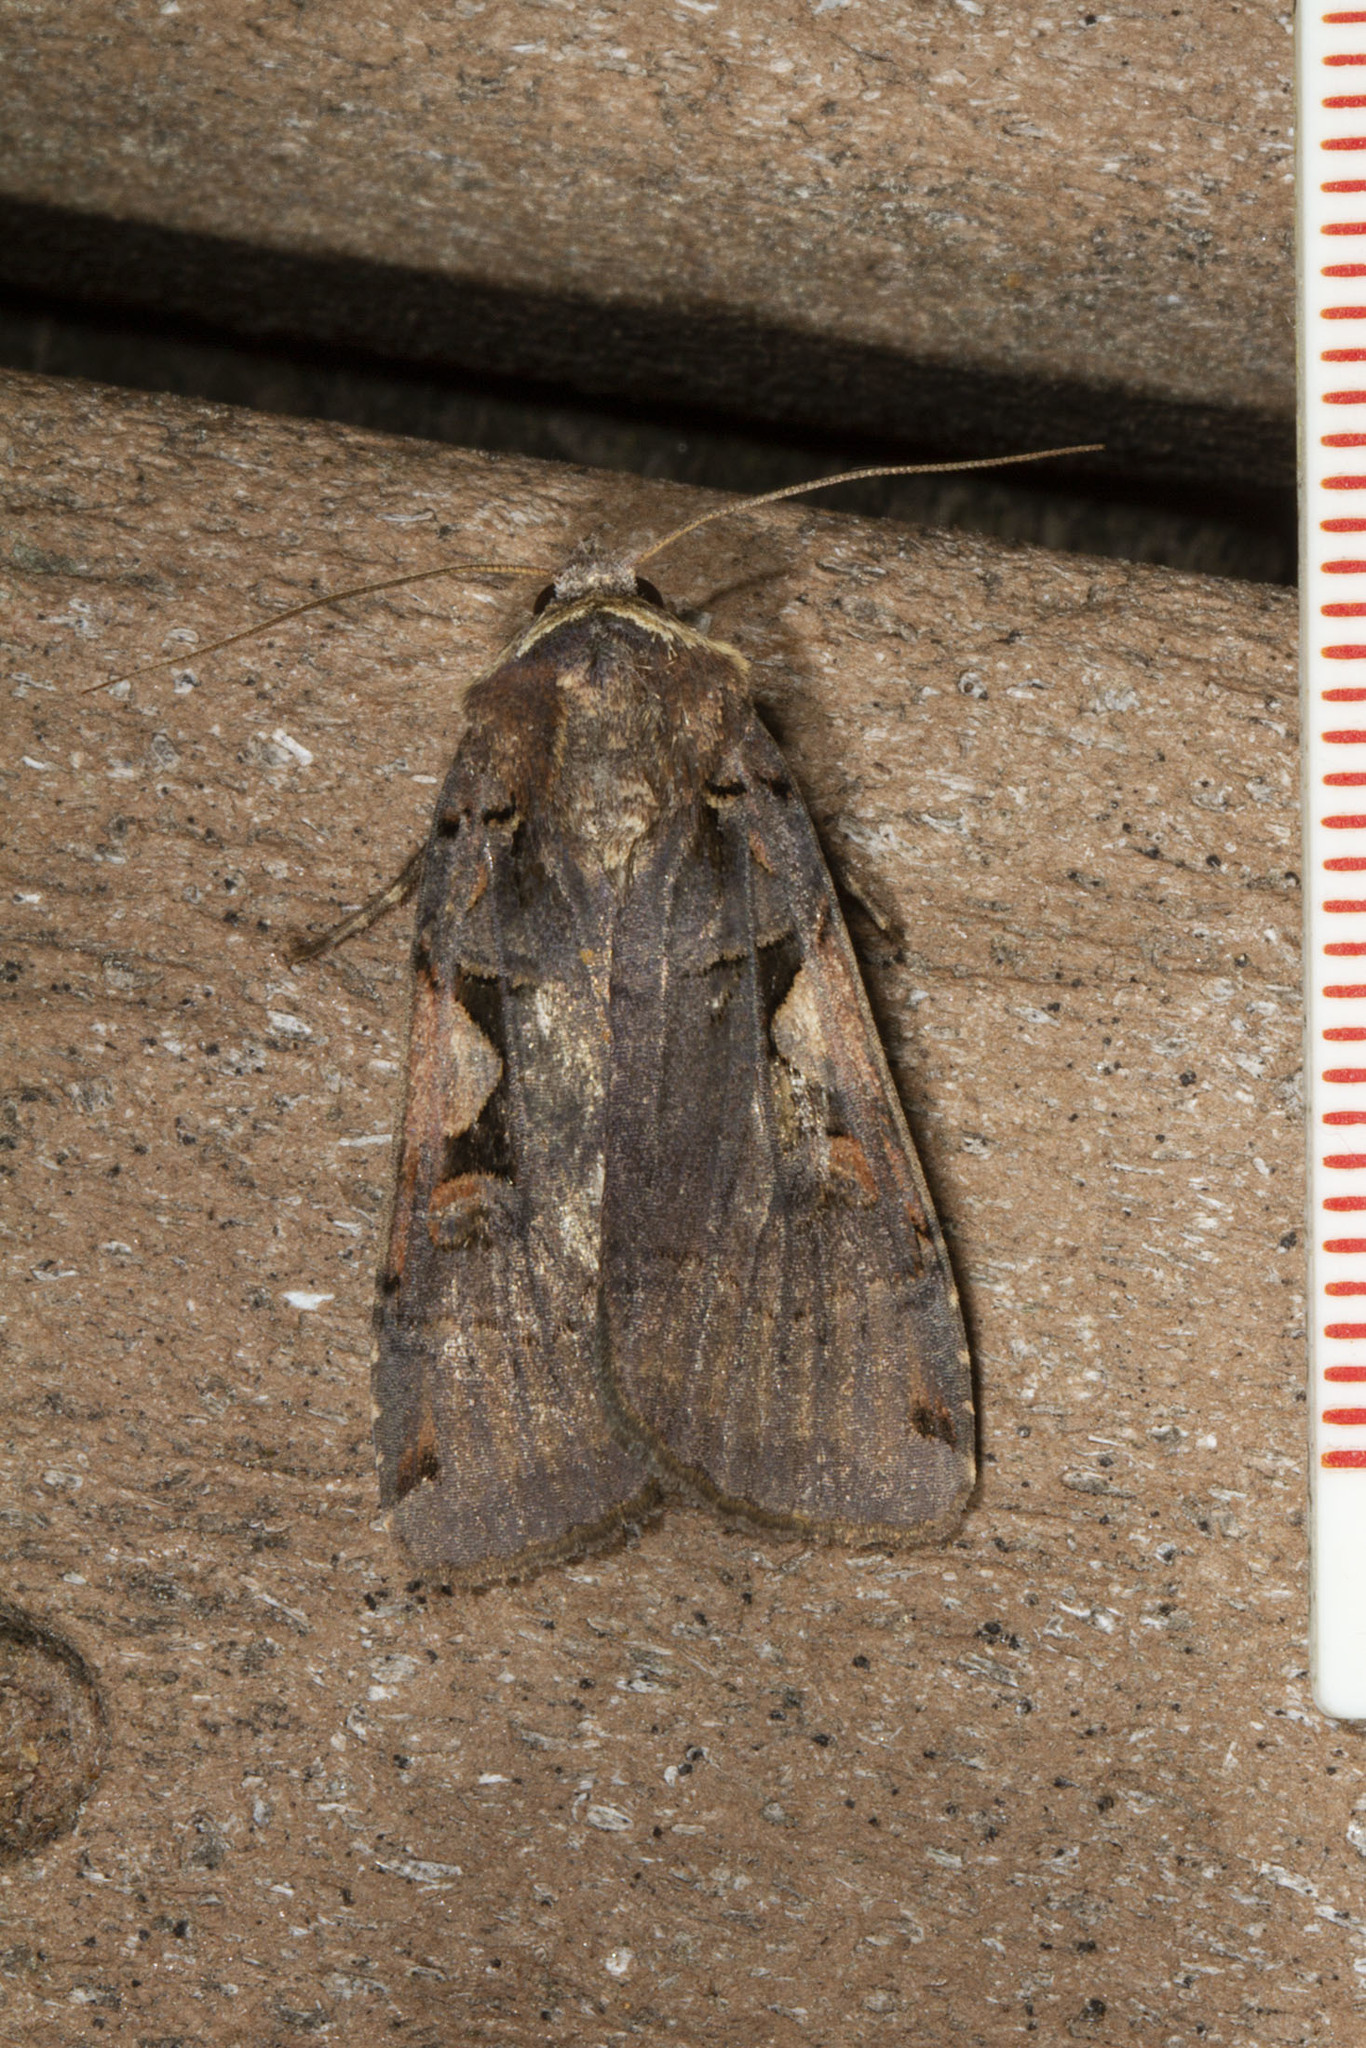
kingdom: Animalia
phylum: Arthropoda
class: Insecta
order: Lepidoptera
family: Noctuidae
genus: Xestia
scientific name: Xestia dolosa
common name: Cutworm moth
